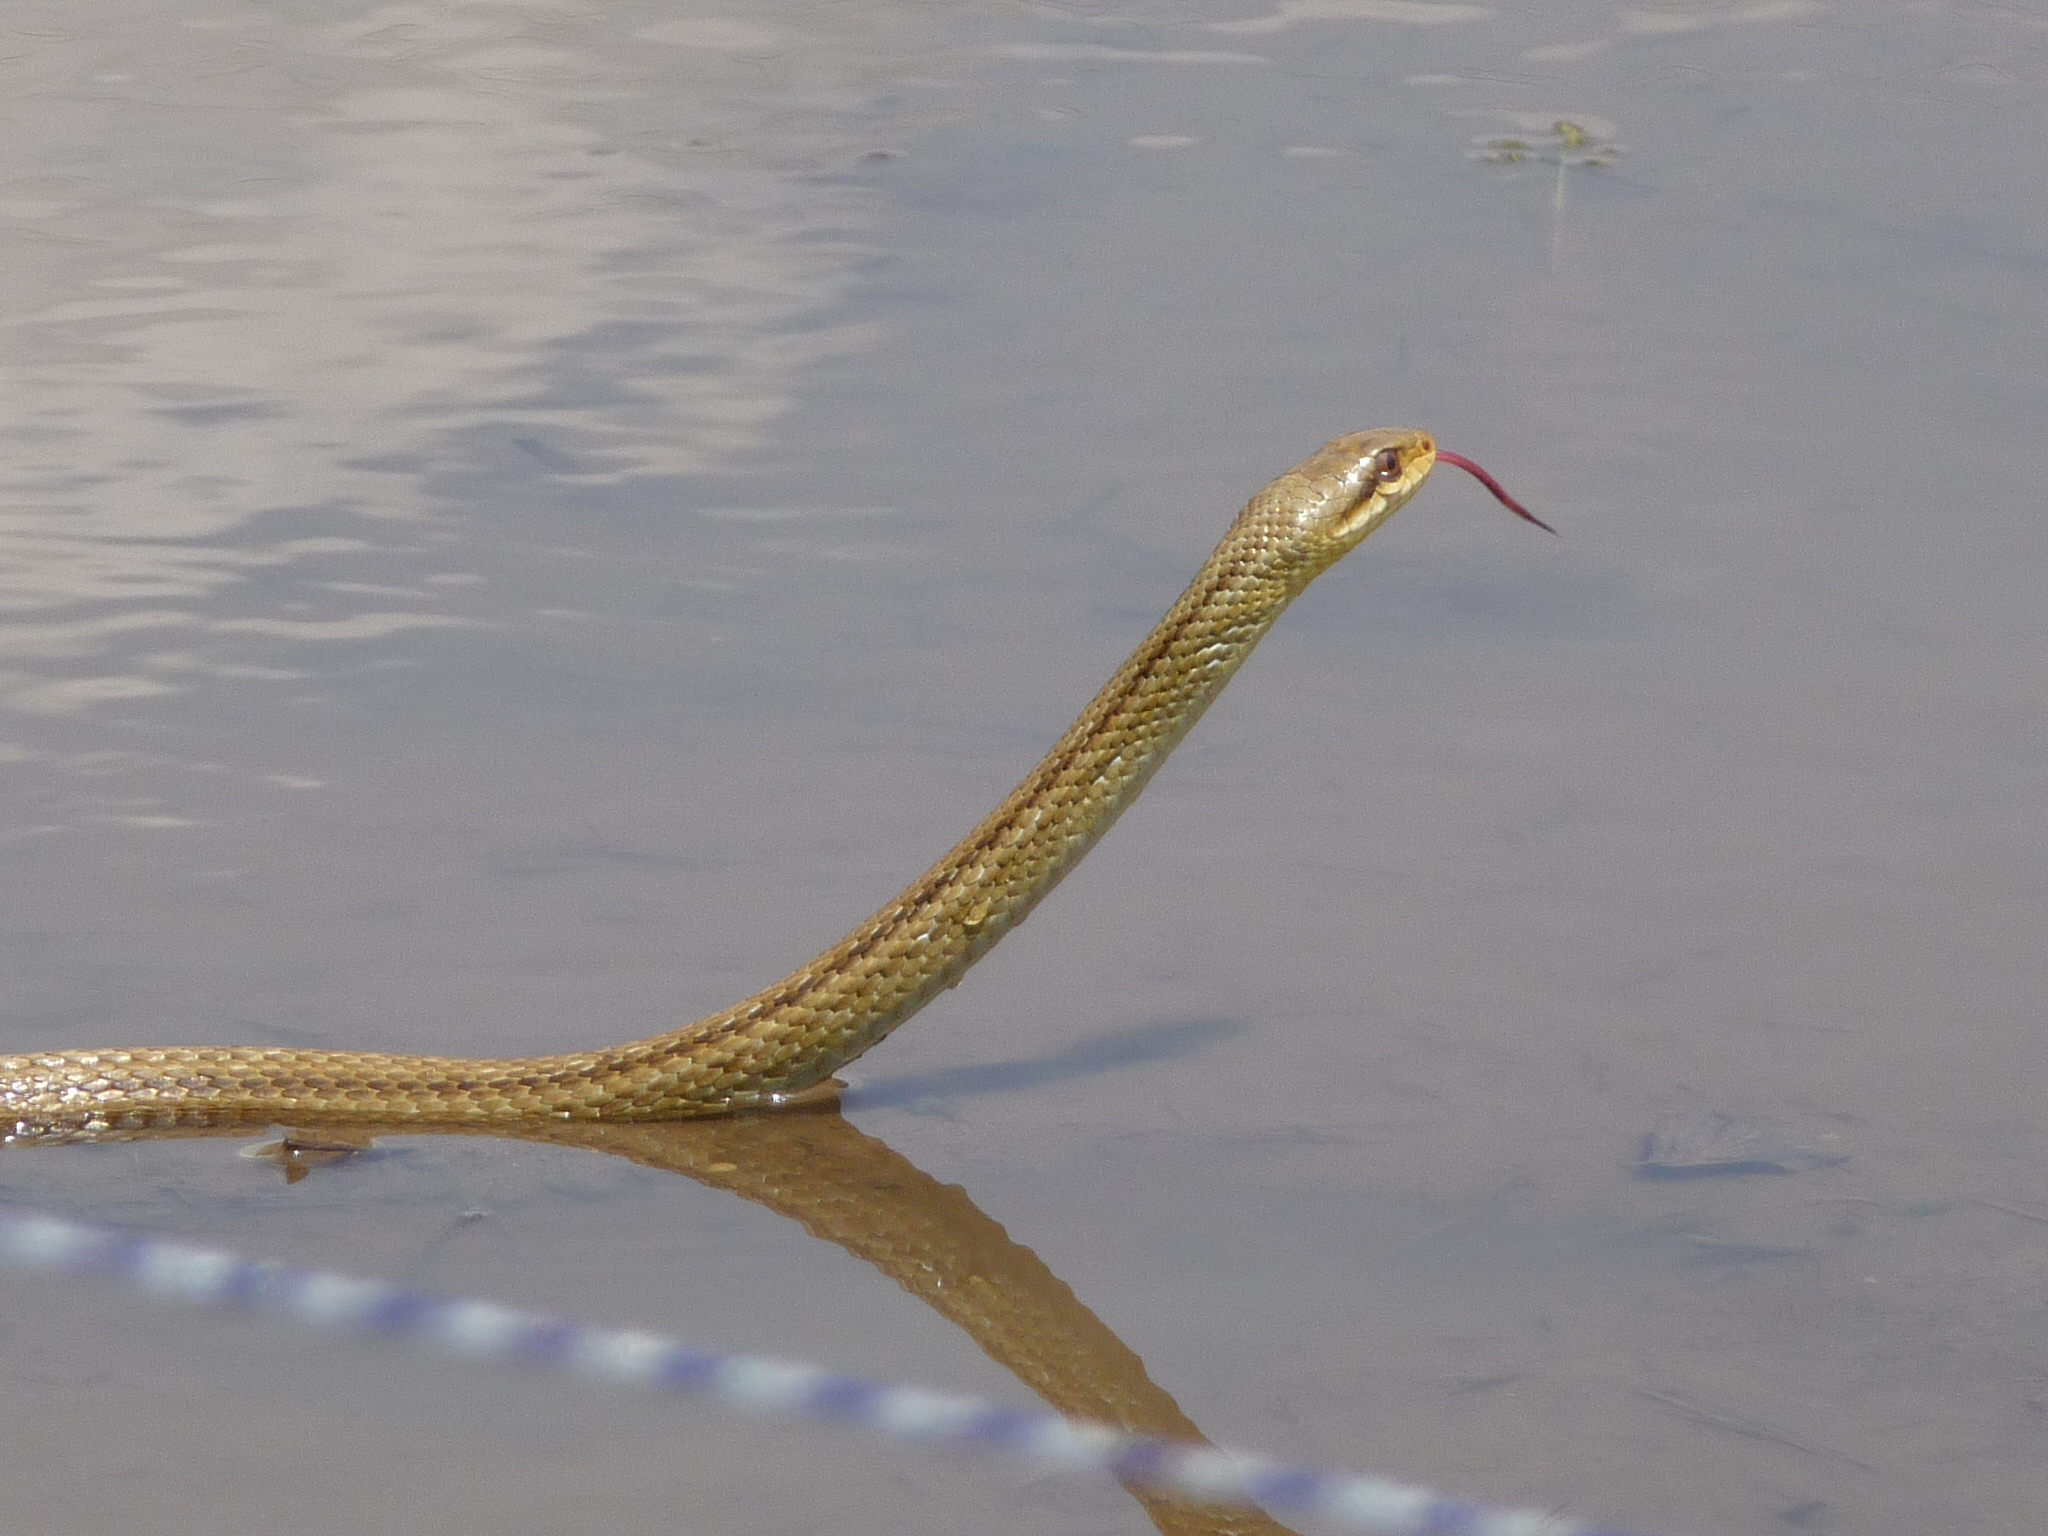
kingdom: Animalia
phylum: Chordata
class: Squamata
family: Colubridae
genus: Elaphe
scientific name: Elaphe quadrivirgata
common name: Japanese four-lined ratsnake
